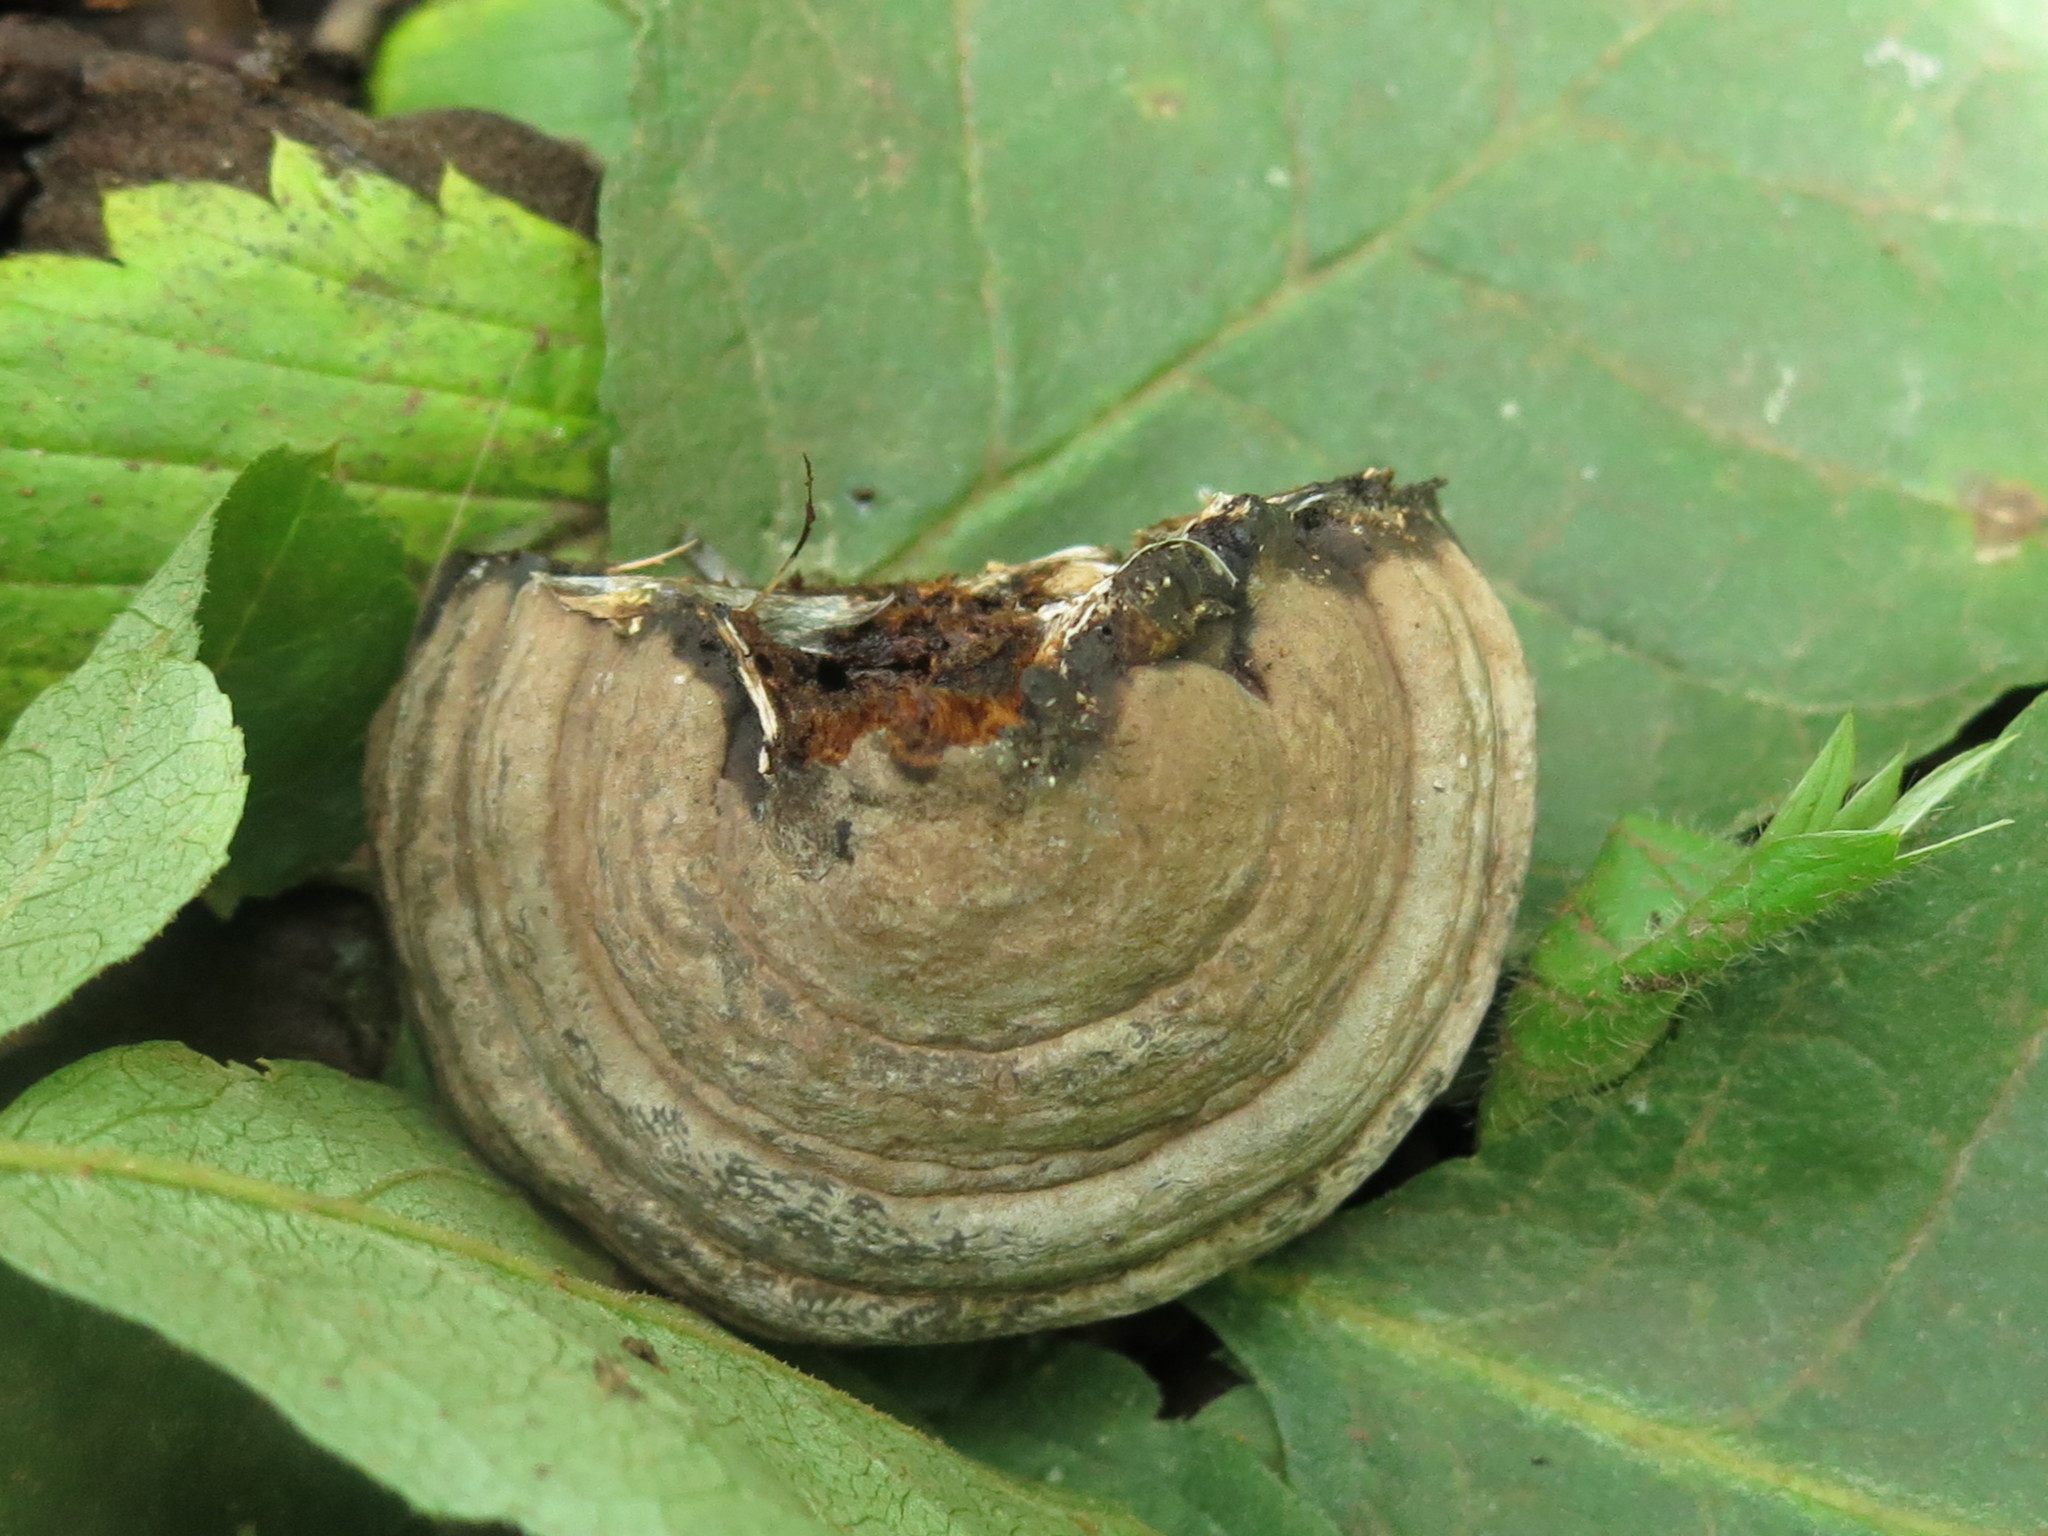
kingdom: Fungi
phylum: Basidiomycota
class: Agaricomycetes
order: Polyporales
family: Polyporaceae
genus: Fomes
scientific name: Fomes fomentarius
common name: Hoof fungus
